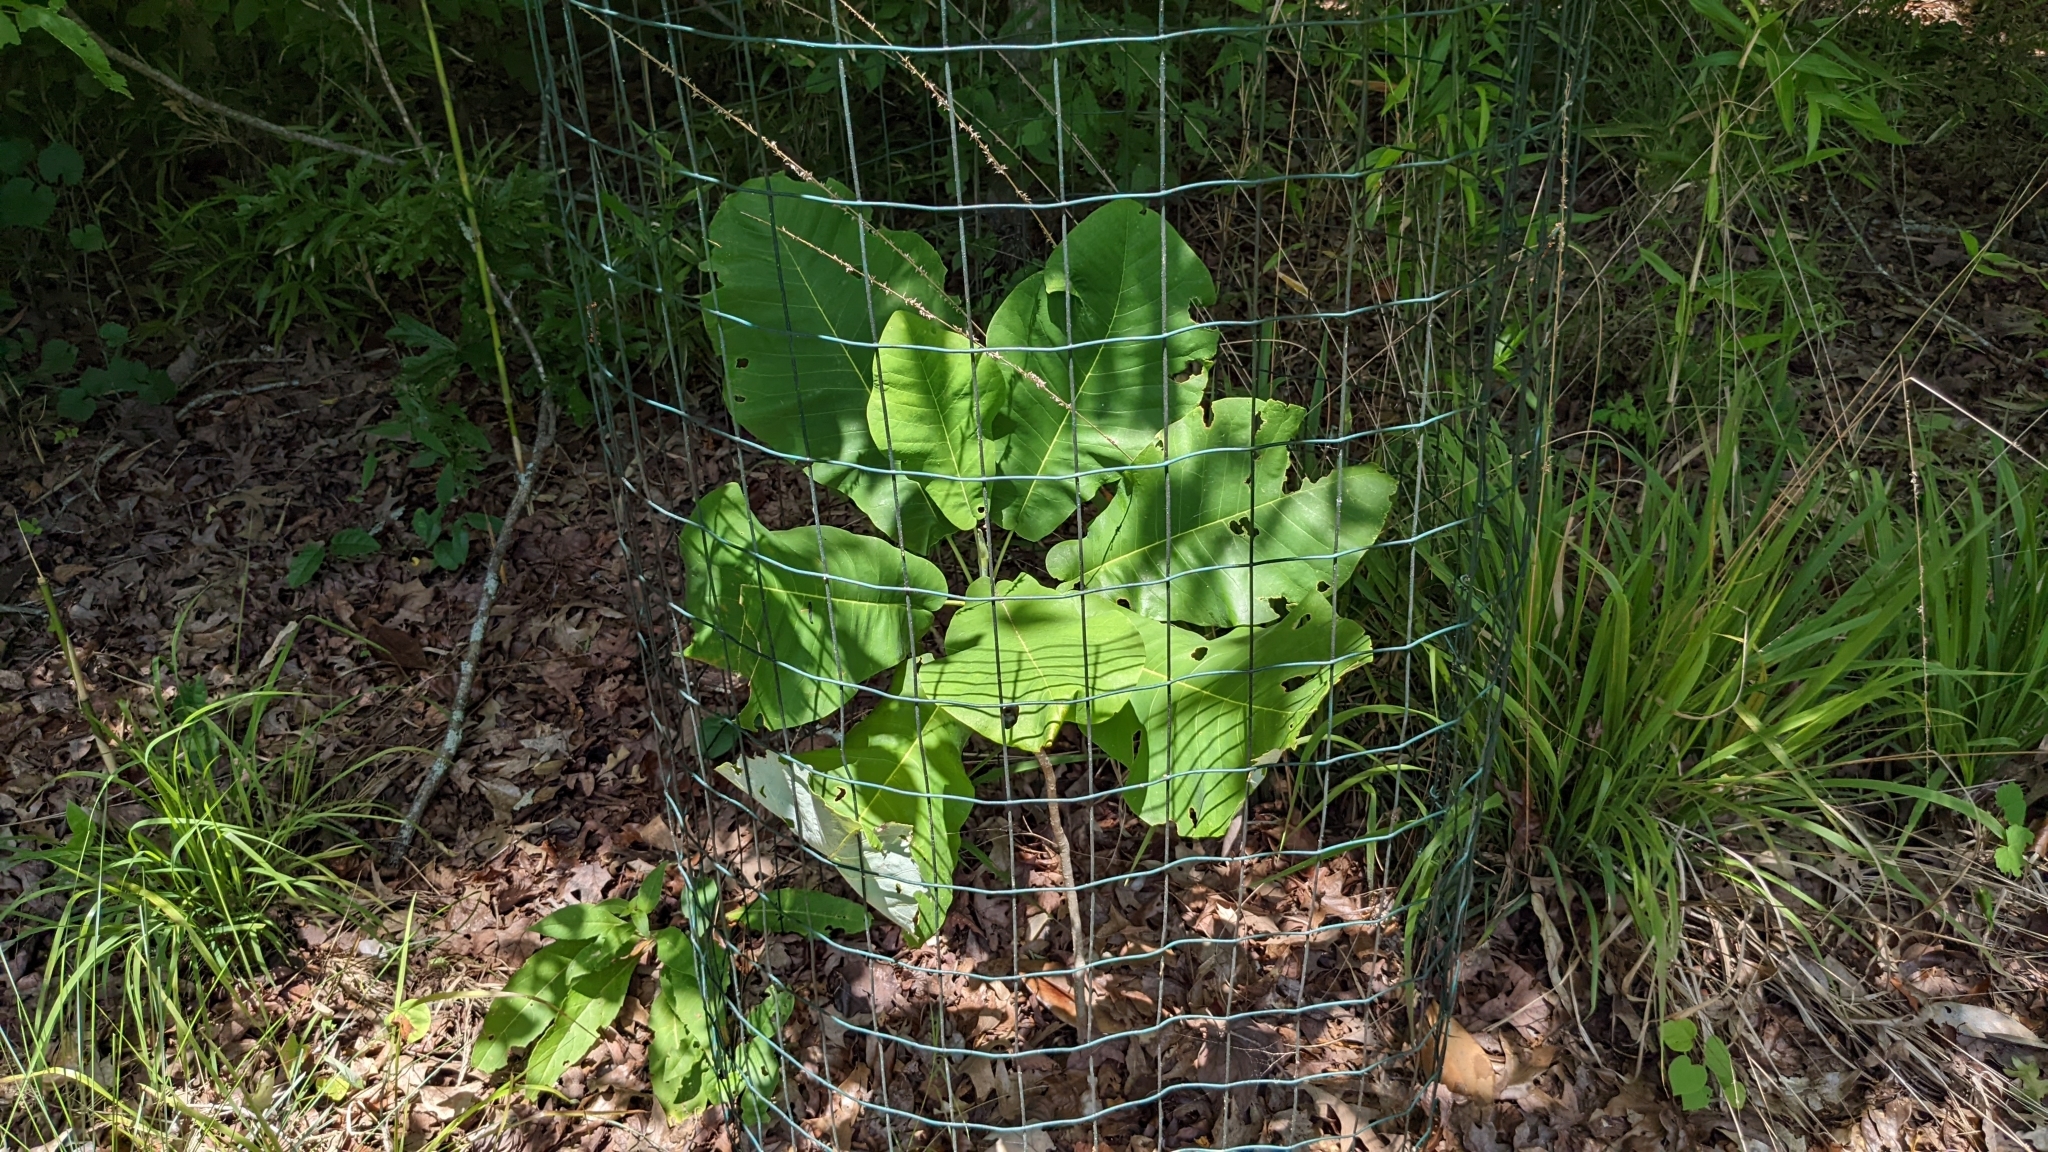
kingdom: Plantae
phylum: Tracheophyta
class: Magnoliopsida
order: Magnoliales
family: Magnoliaceae
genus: Magnolia
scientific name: Magnolia macrophylla
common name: Big-leaf magnolia
